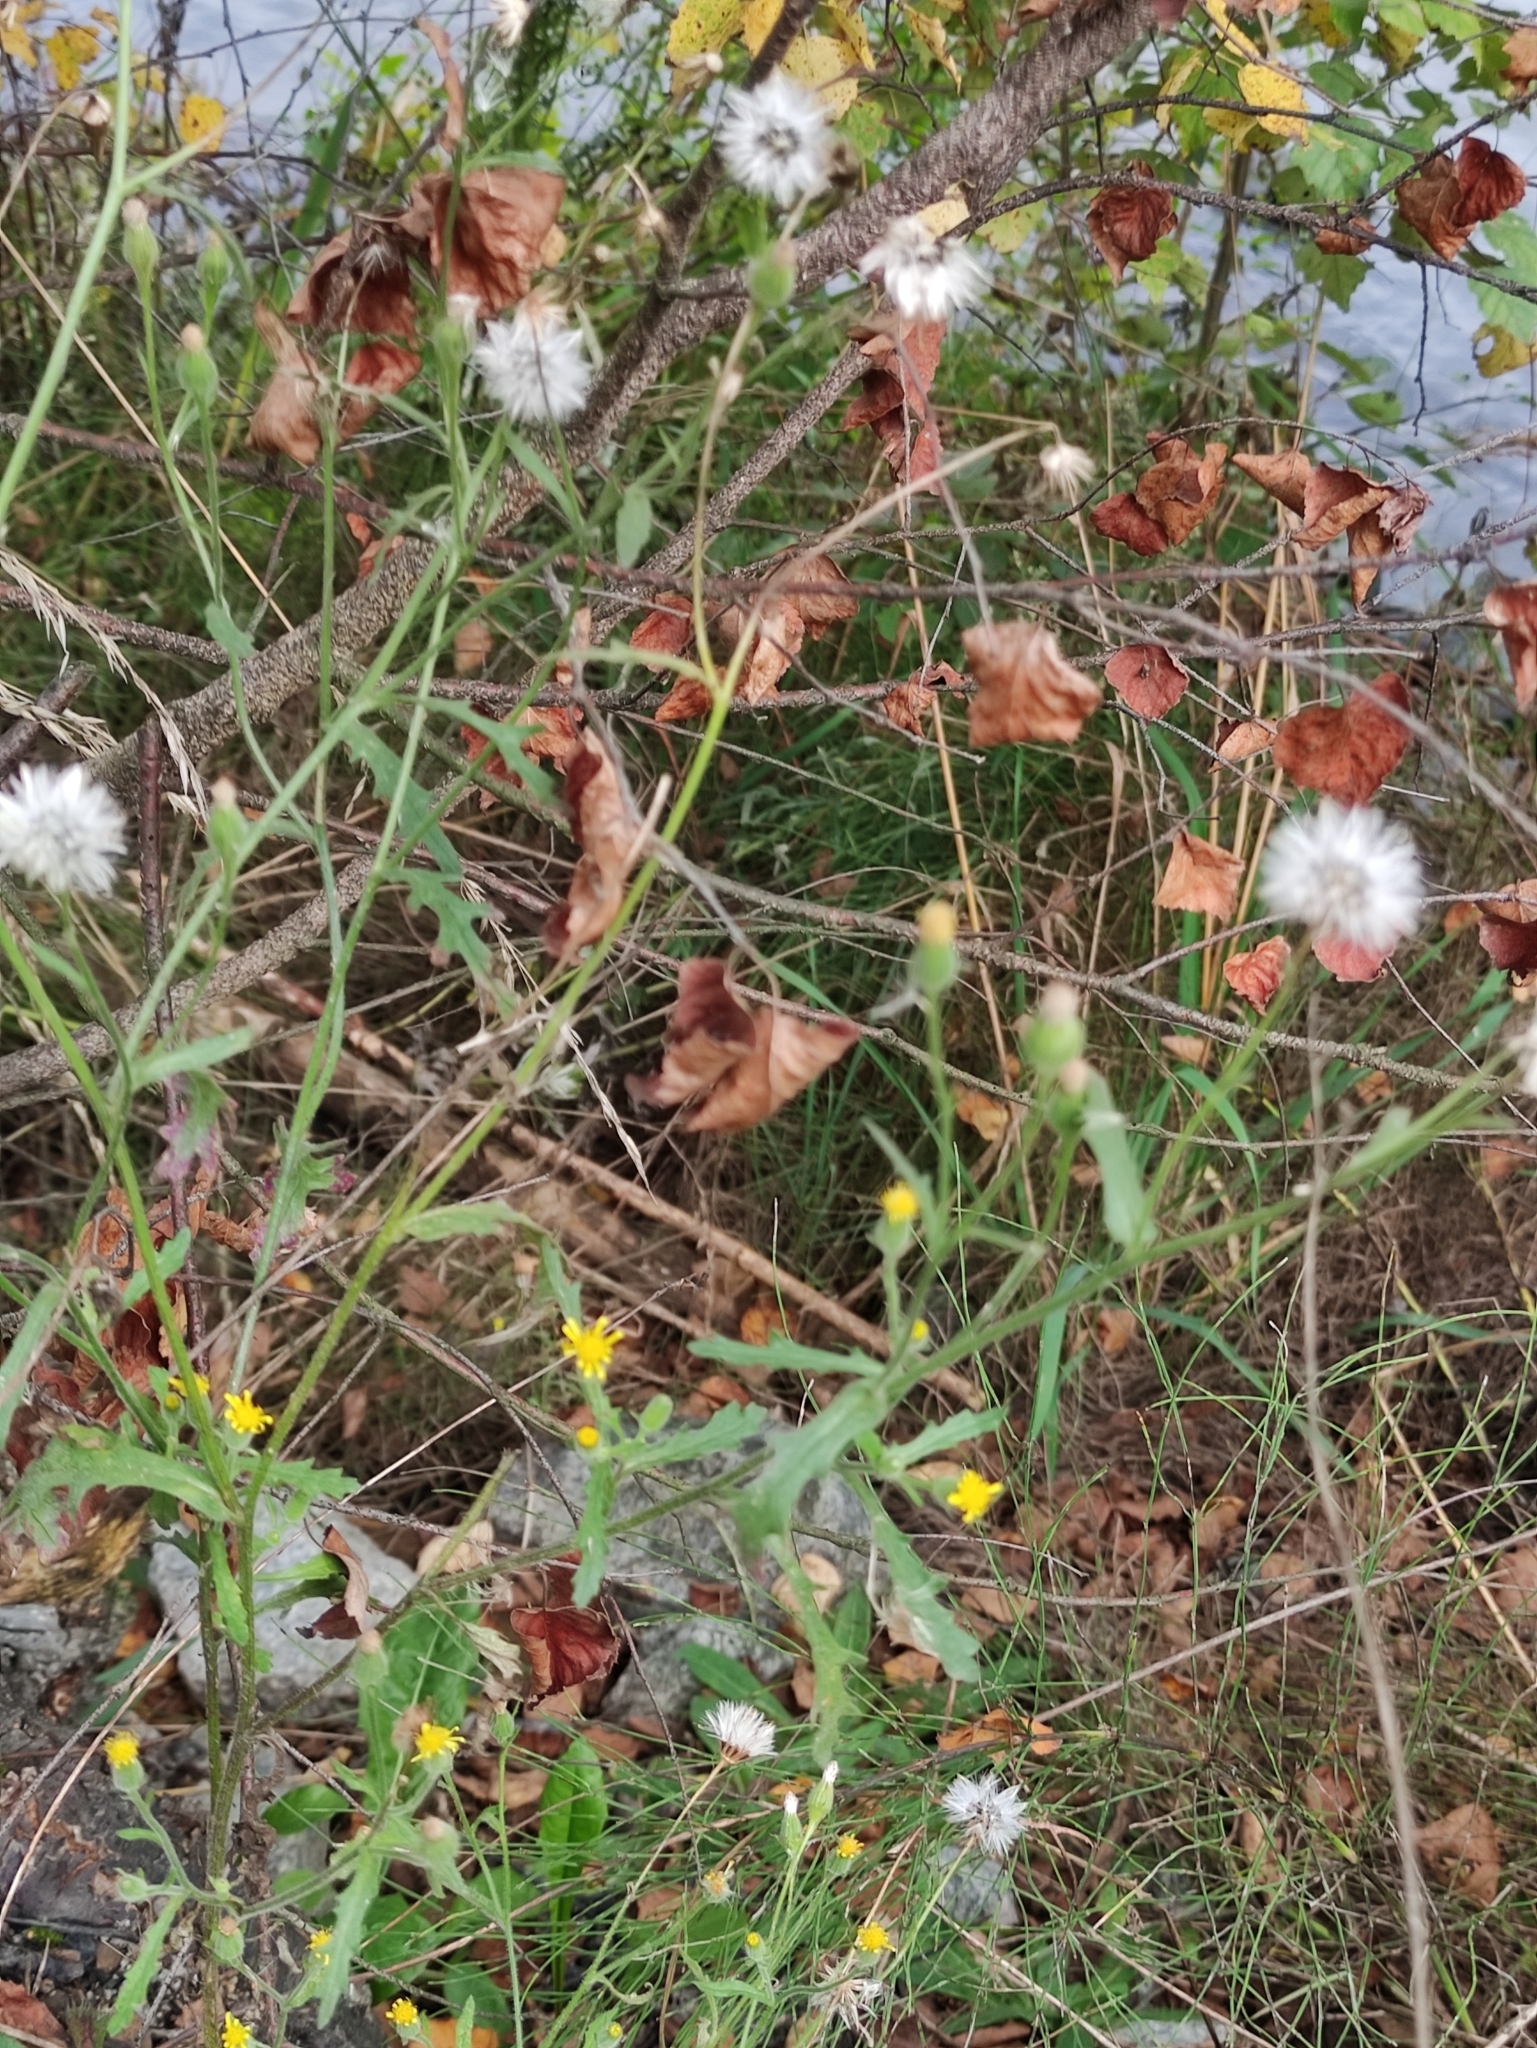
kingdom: Plantae
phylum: Tracheophyta
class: Magnoliopsida
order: Asterales
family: Asteraceae
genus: Senecio
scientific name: Senecio viscosus
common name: Sticky groundsel
